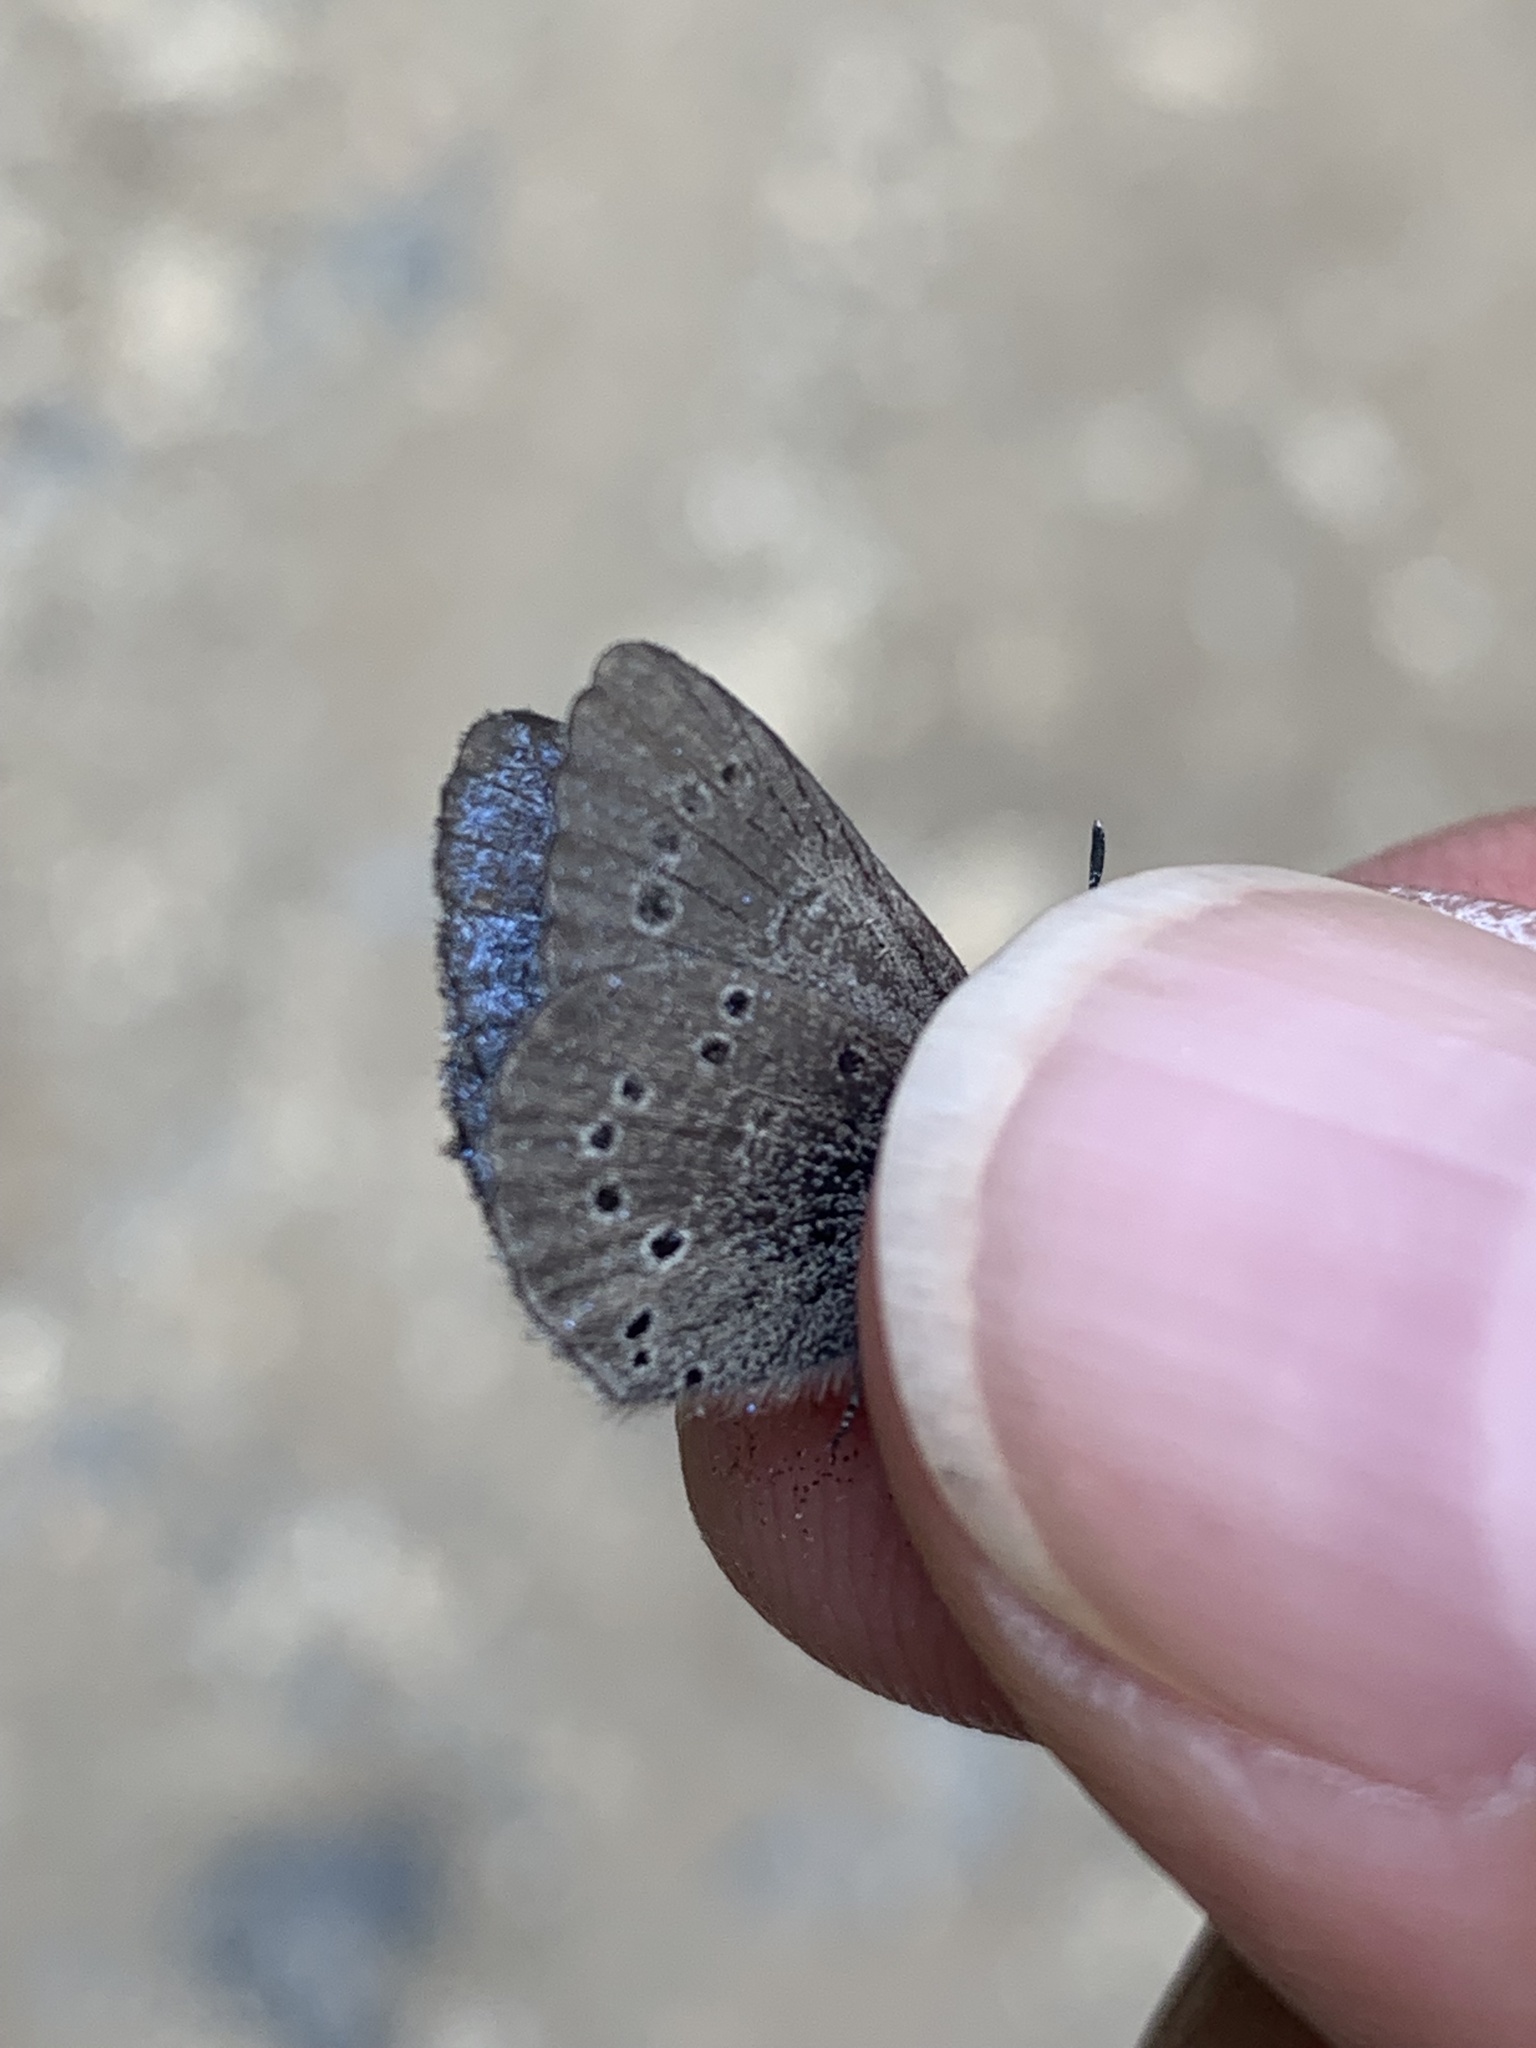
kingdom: Animalia
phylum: Arthropoda
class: Insecta
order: Lepidoptera
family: Lycaenidae
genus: Glaucopsyche
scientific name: Glaucopsyche lygdamus
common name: Silvery blue
